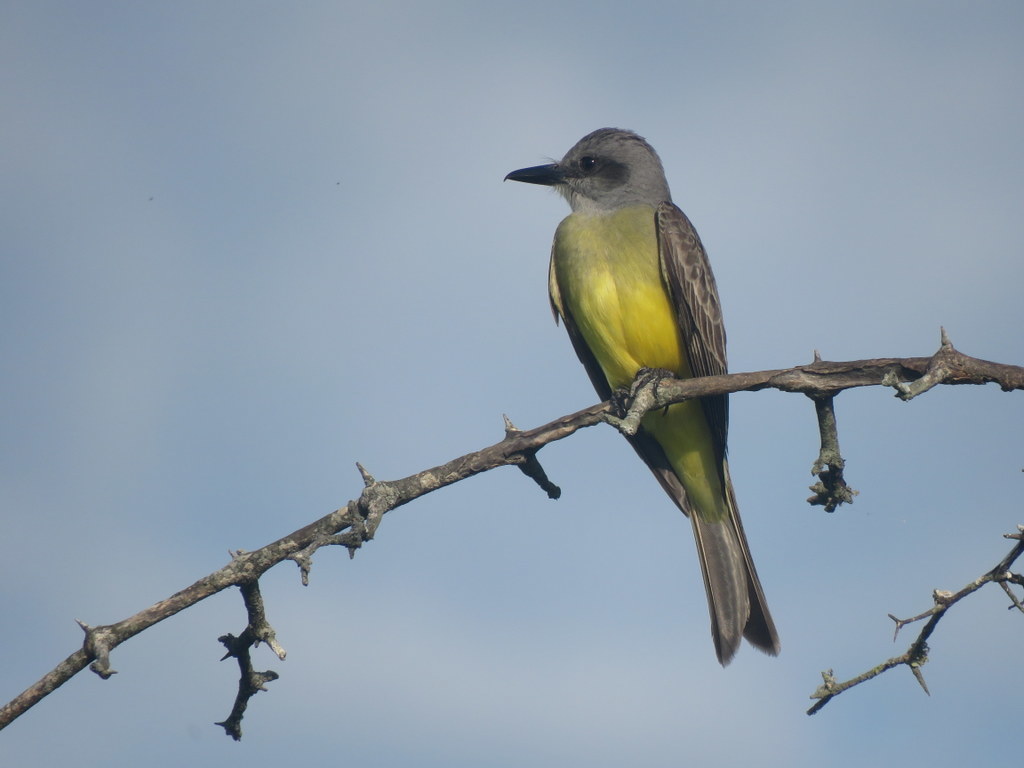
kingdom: Animalia
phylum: Chordata
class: Aves
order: Passeriformes
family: Tyrannidae
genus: Tyrannus
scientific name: Tyrannus melancholicus
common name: Tropical kingbird
